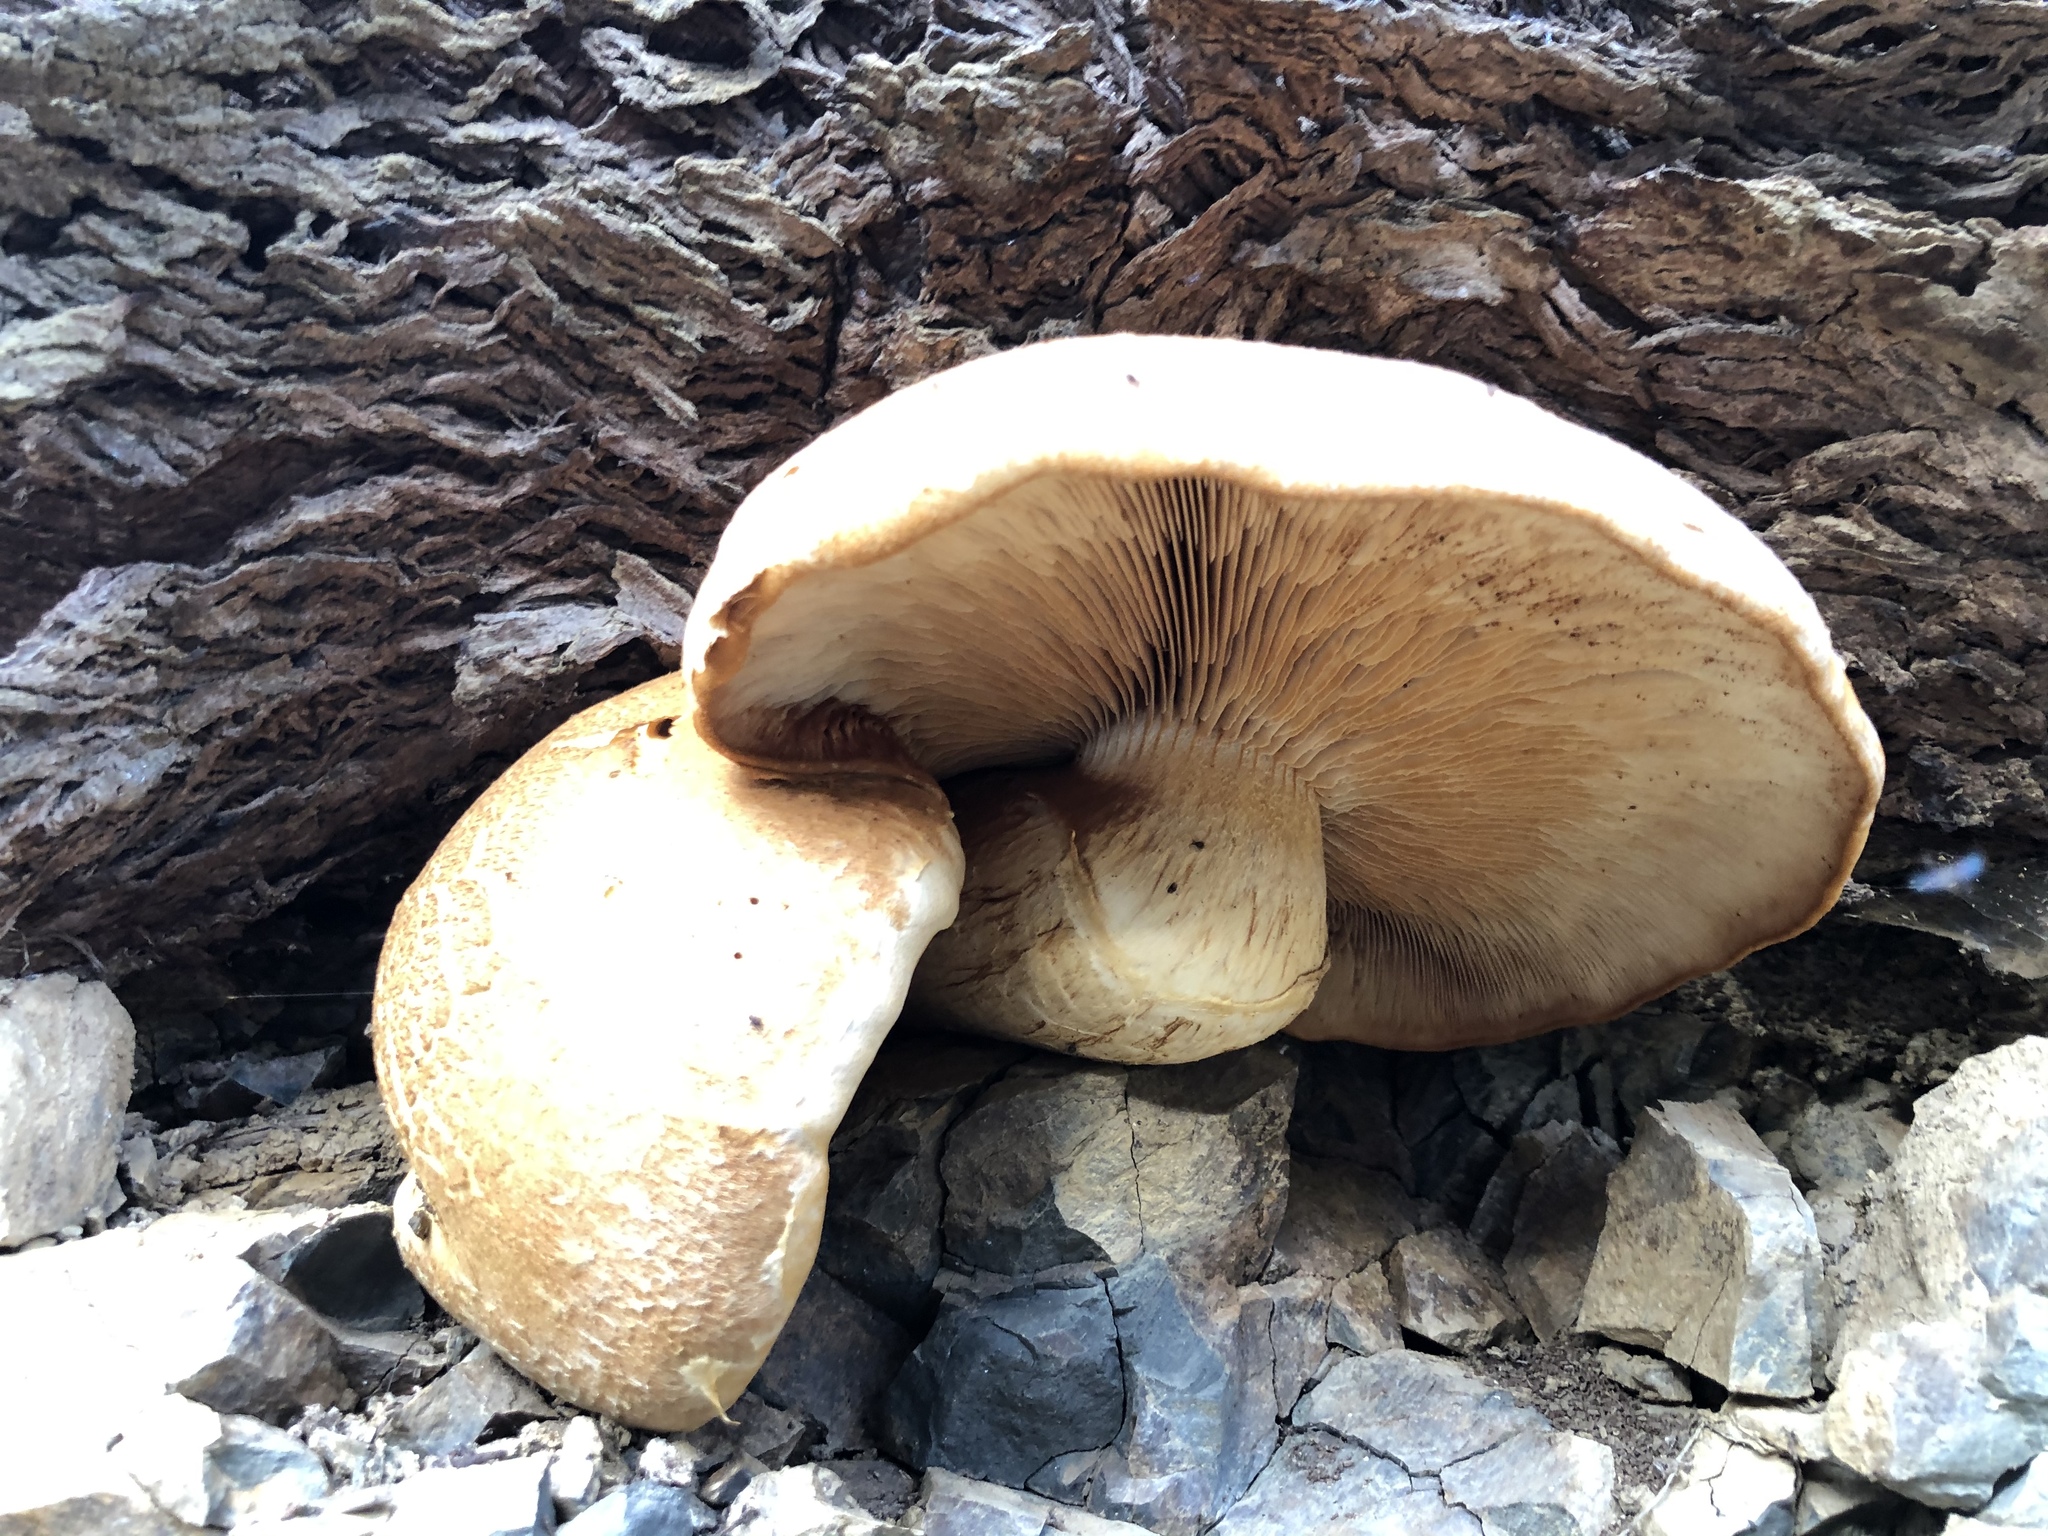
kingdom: Fungi
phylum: Basidiomycota
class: Agaricomycetes
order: Agaricales
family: Hymenogastraceae
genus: Gymnopilus
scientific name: Gymnopilus ventricosus
